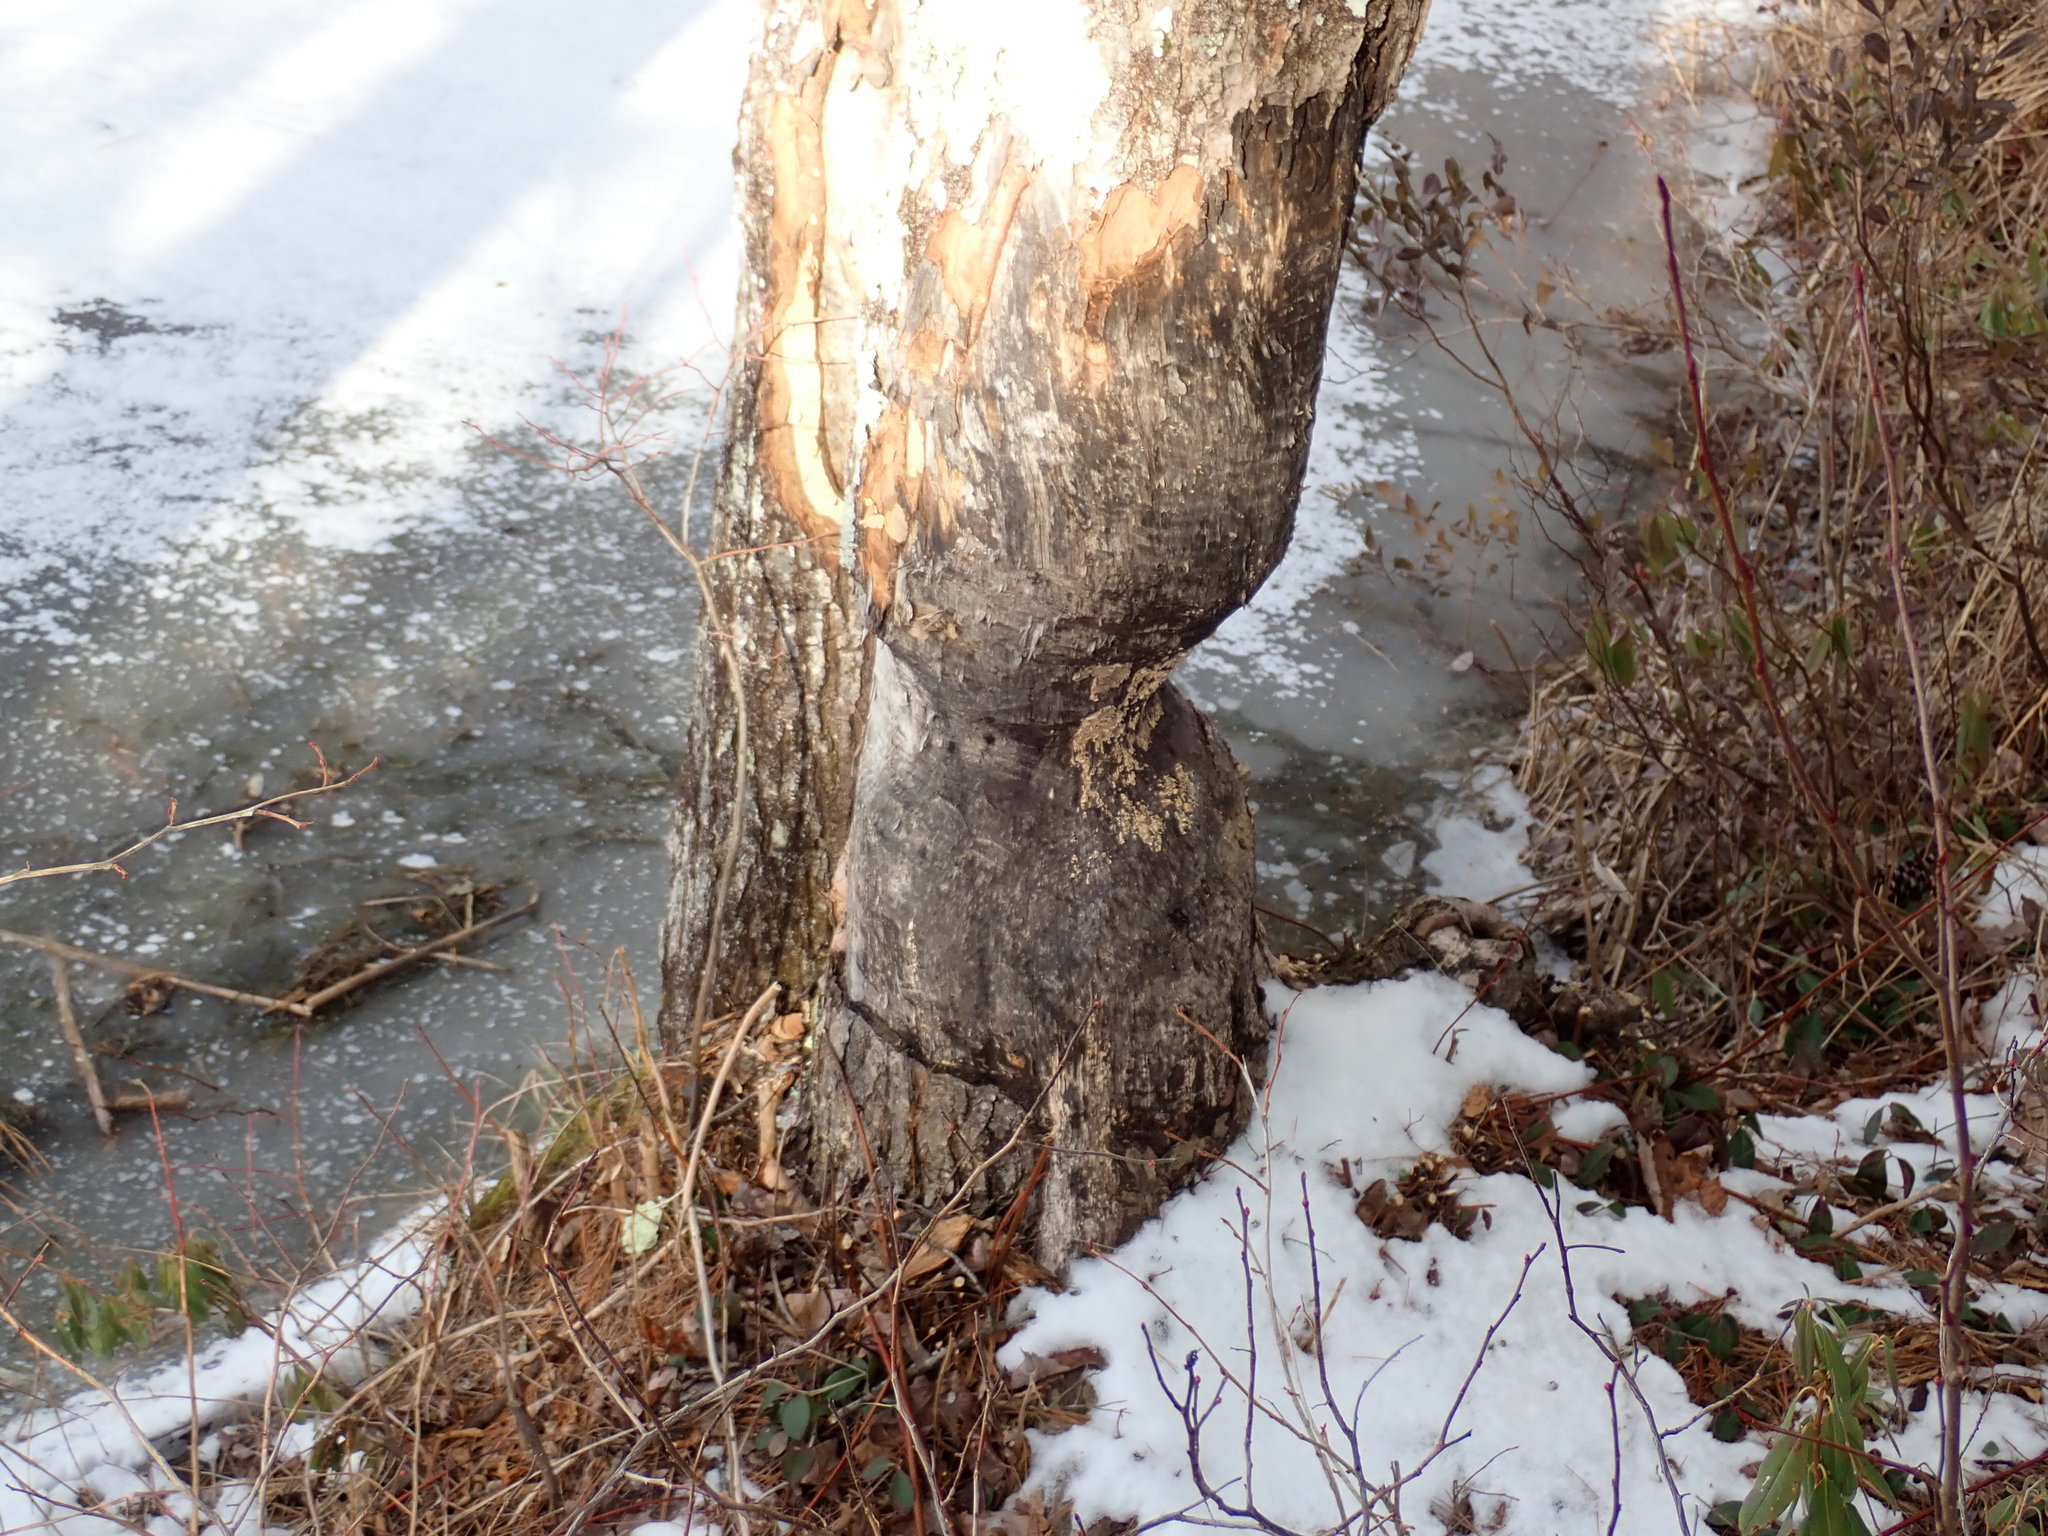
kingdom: Animalia
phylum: Chordata
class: Mammalia
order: Rodentia
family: Castoridae
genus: Castor
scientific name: Castor canadensis
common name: American beaver
